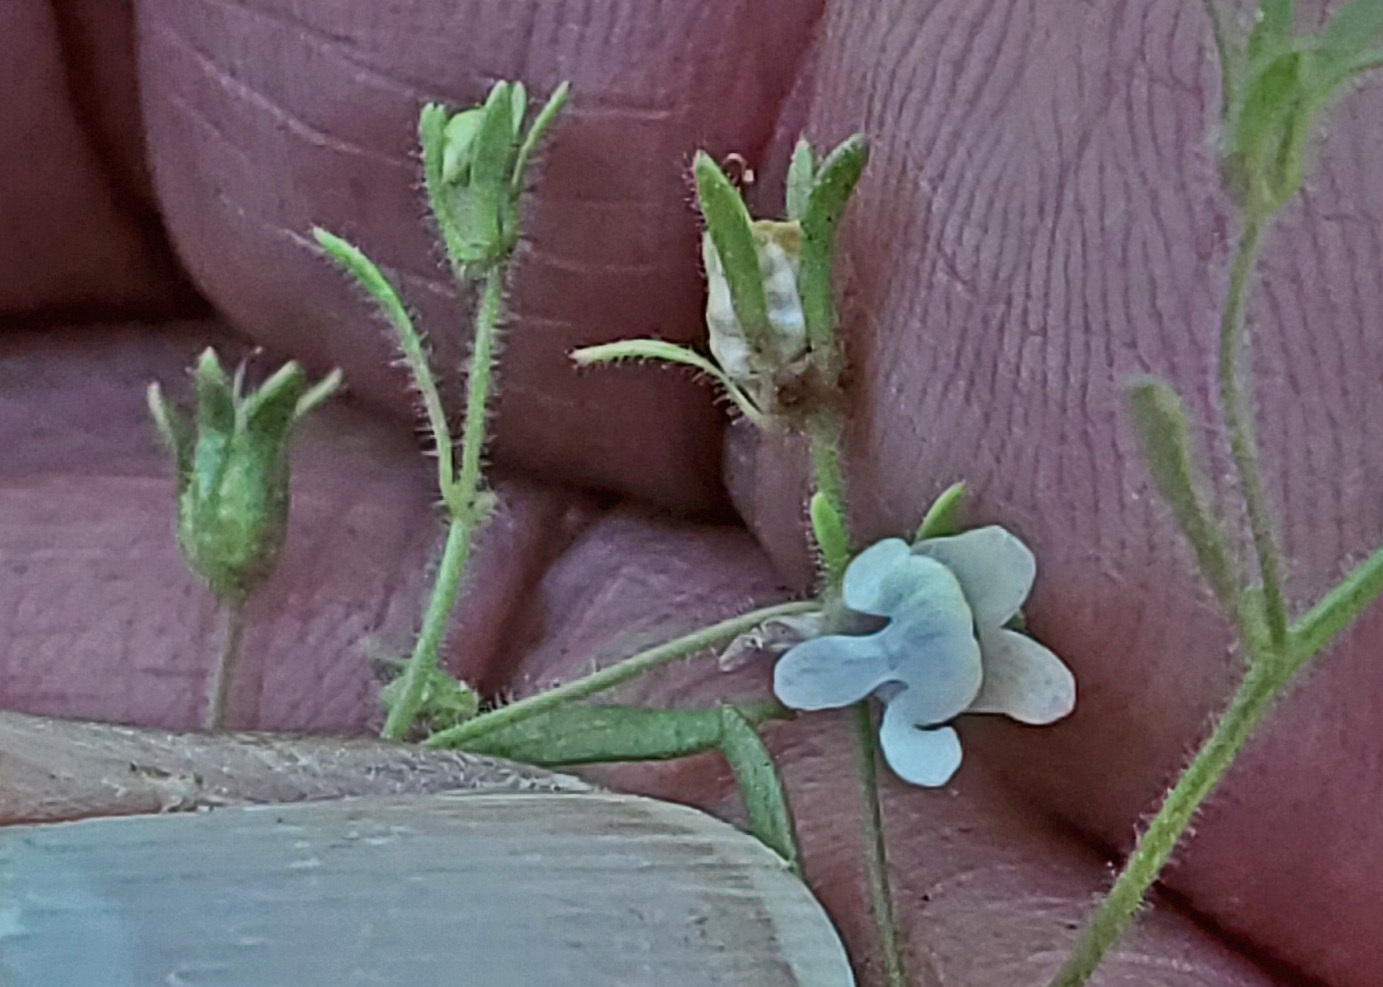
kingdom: Plantae
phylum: Tracheophyta
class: Magnoliopsida
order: Lamiales
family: Plantaginaceae
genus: Chaenorhinum
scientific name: Chaenorhinum minus
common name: Dwarf snapdragon
